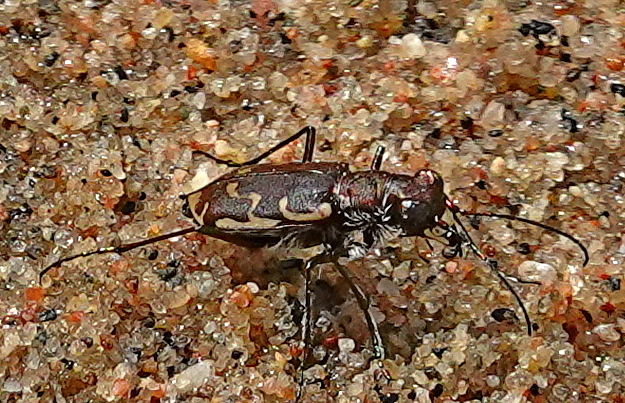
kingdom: Animalia
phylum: Arthropoda
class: Insecta
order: Coleoptera
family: Carabidae
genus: Cicindela
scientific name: Cicindela repanda
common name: Bronzed tiger beetle
